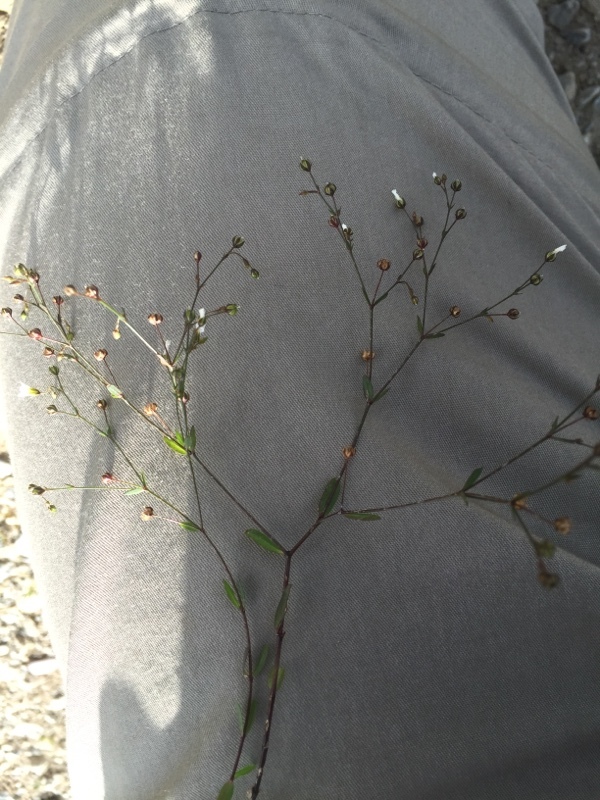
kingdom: Plantae
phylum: Tracheophyta
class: Magnoliopsida
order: Malpighiales
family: Linaceae
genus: Linum
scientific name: Linum catharticum
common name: Fairy flax
